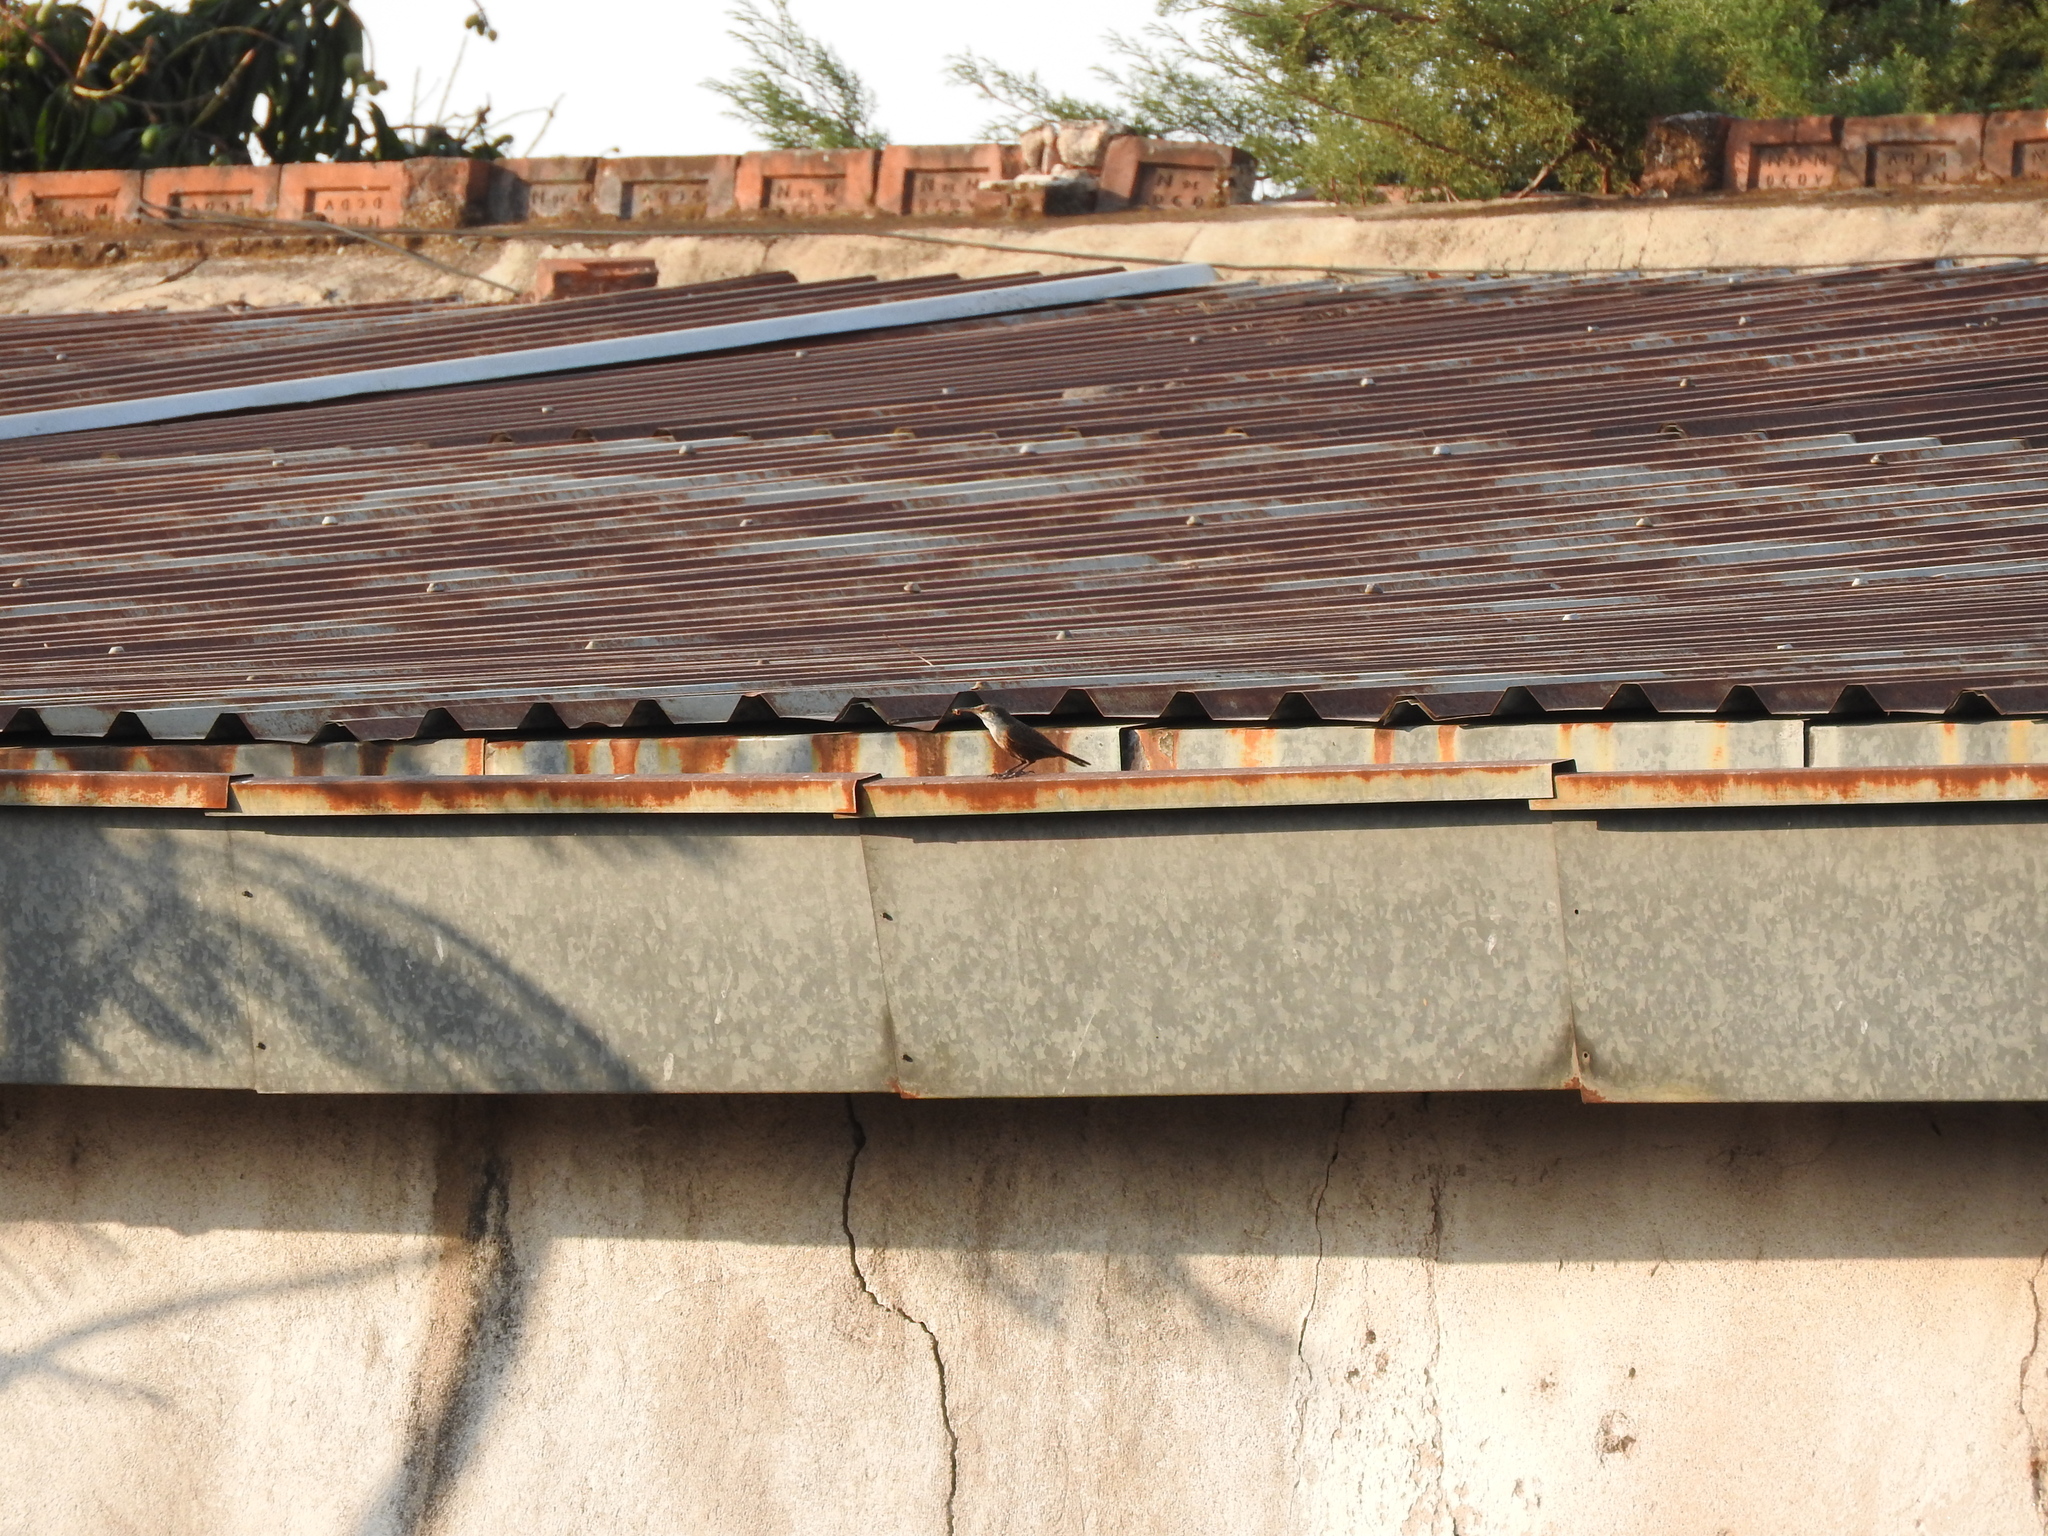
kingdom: Animalia
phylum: Chordata
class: Aves
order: Passeriformes
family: Troglodytidae
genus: Catherpes
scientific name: Catherpes mexicanus
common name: Canyon wren
